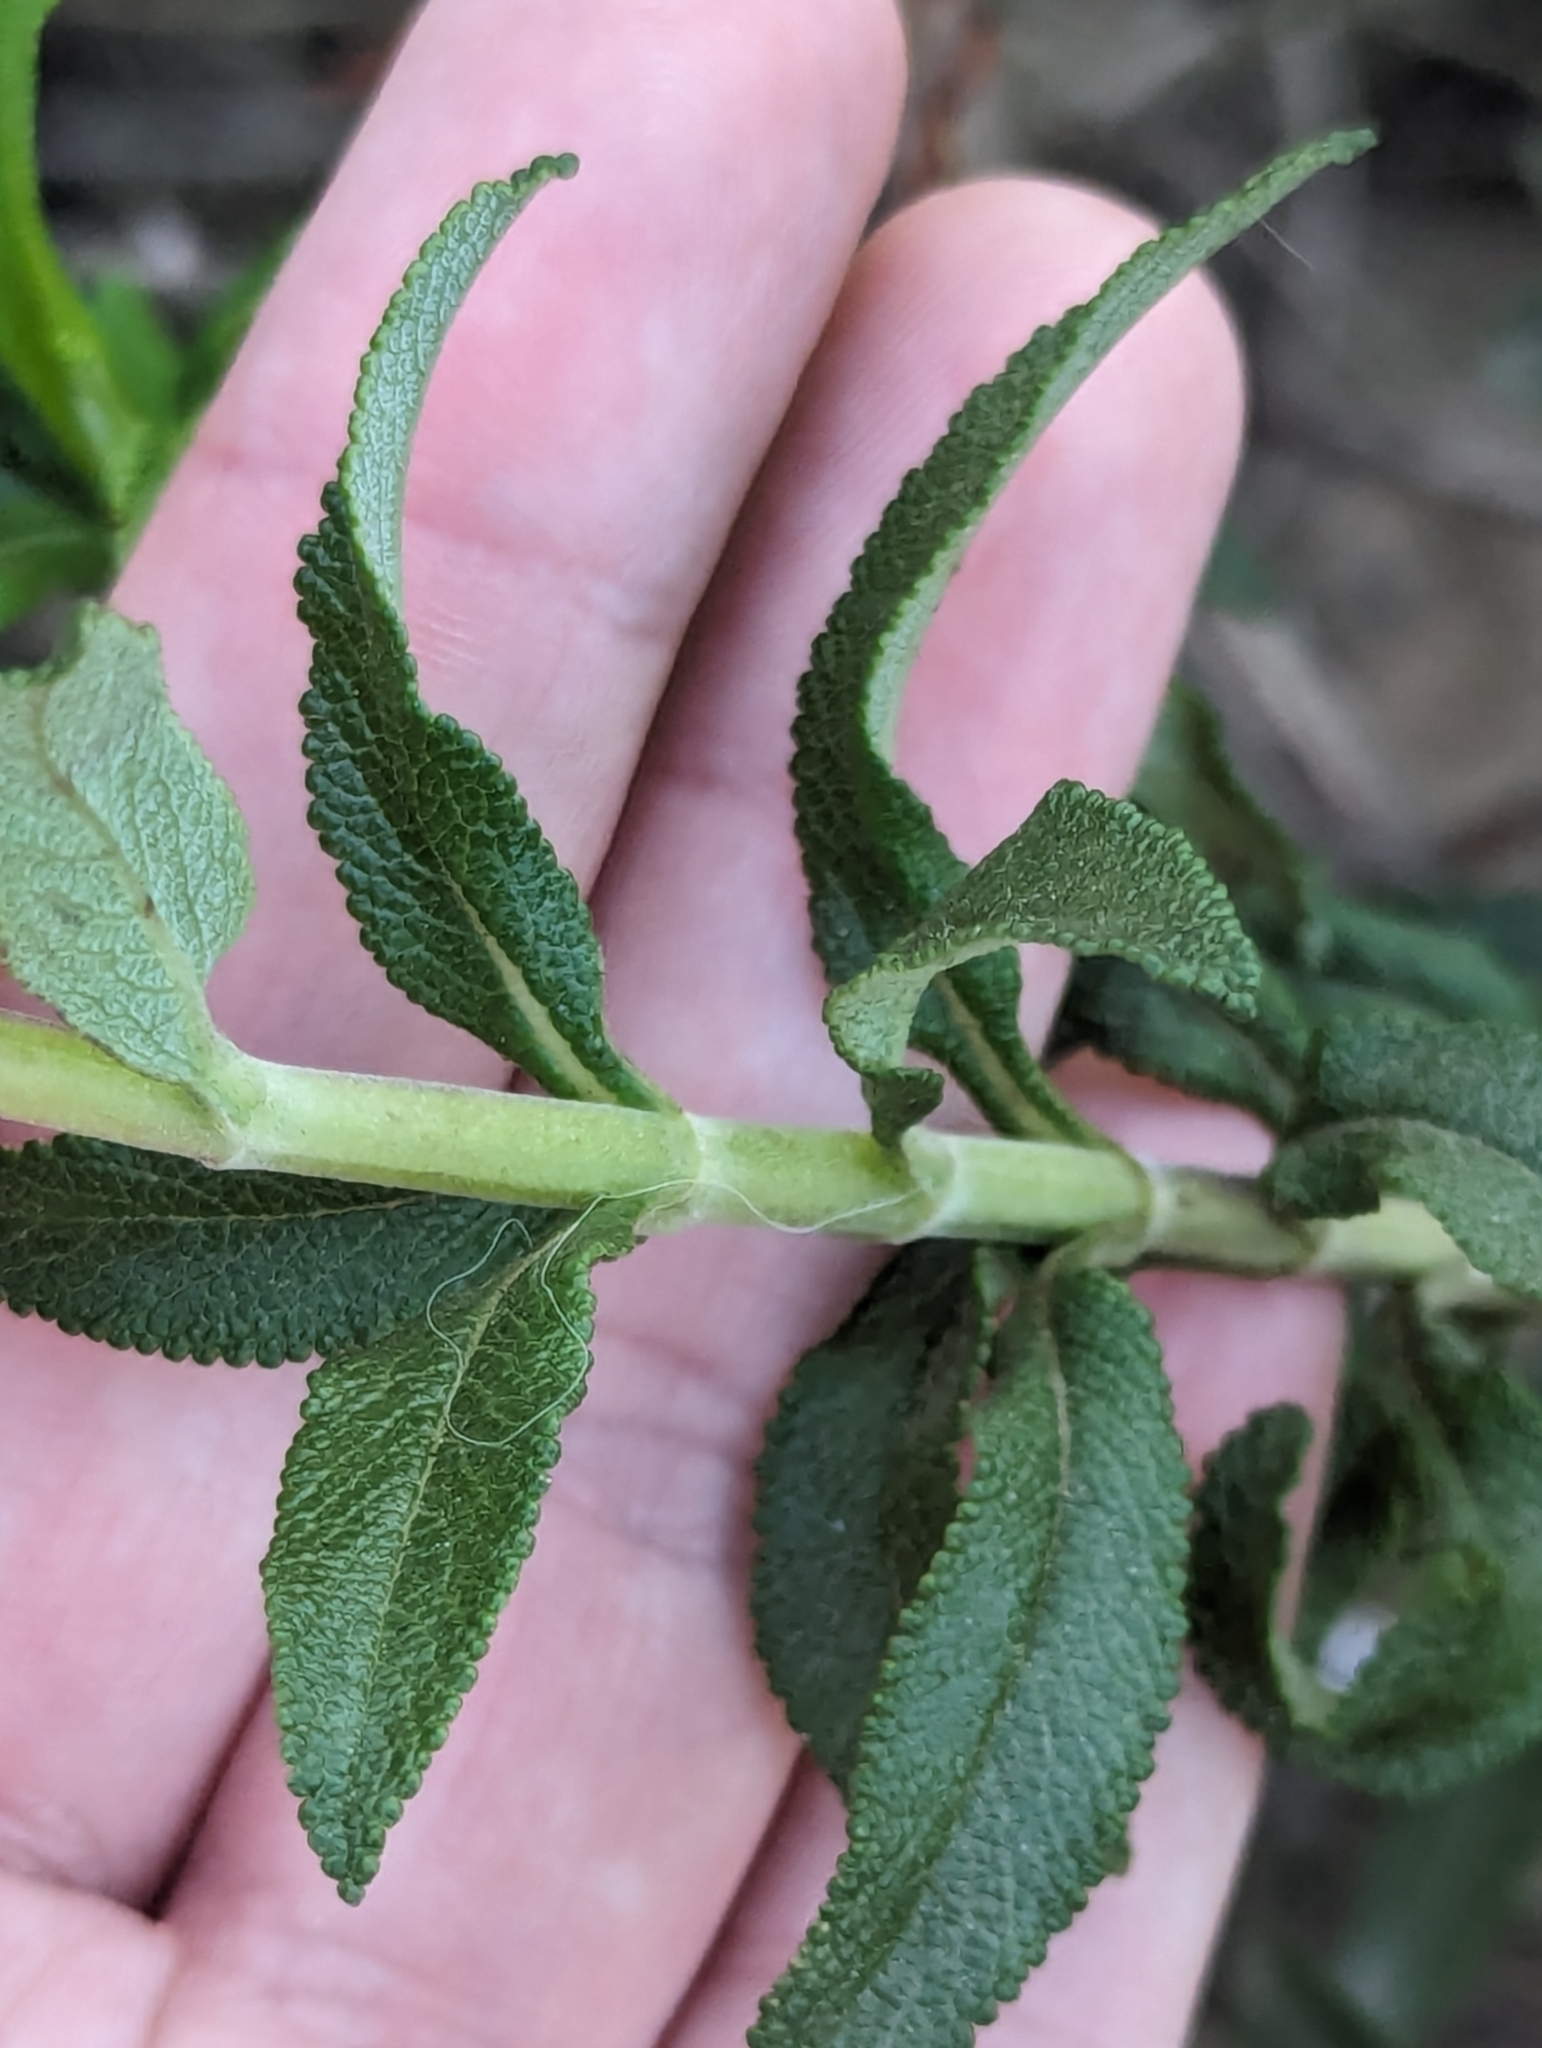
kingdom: Plantae
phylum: Tracheophyta
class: Magnoliopsida
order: Lamiales
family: Lamiaceae
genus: Salvia
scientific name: Salvia mellifera
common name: Black sage
